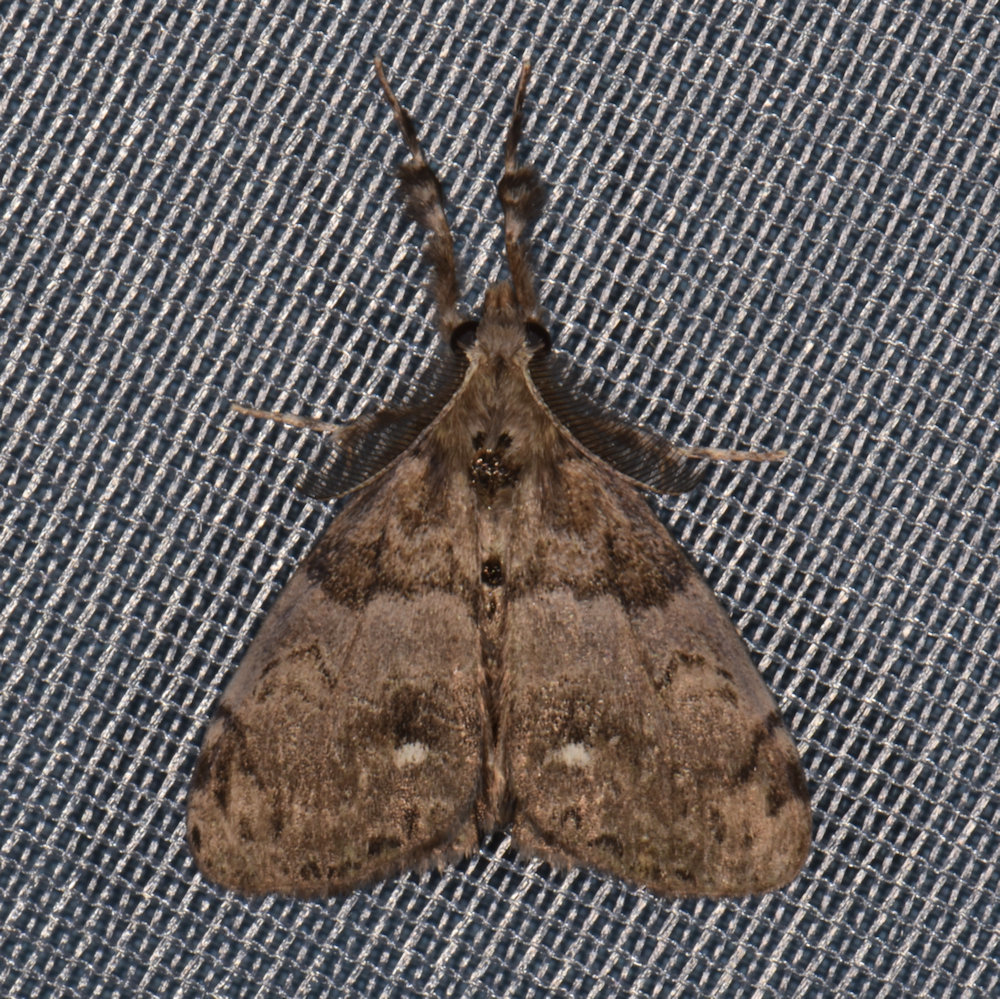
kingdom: Animalia
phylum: Arthropoda
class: Insecta
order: Lepidoptera
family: Erebidae
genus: Orgyia
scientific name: Orgyia leucostigma
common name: White-marked tussock moth
